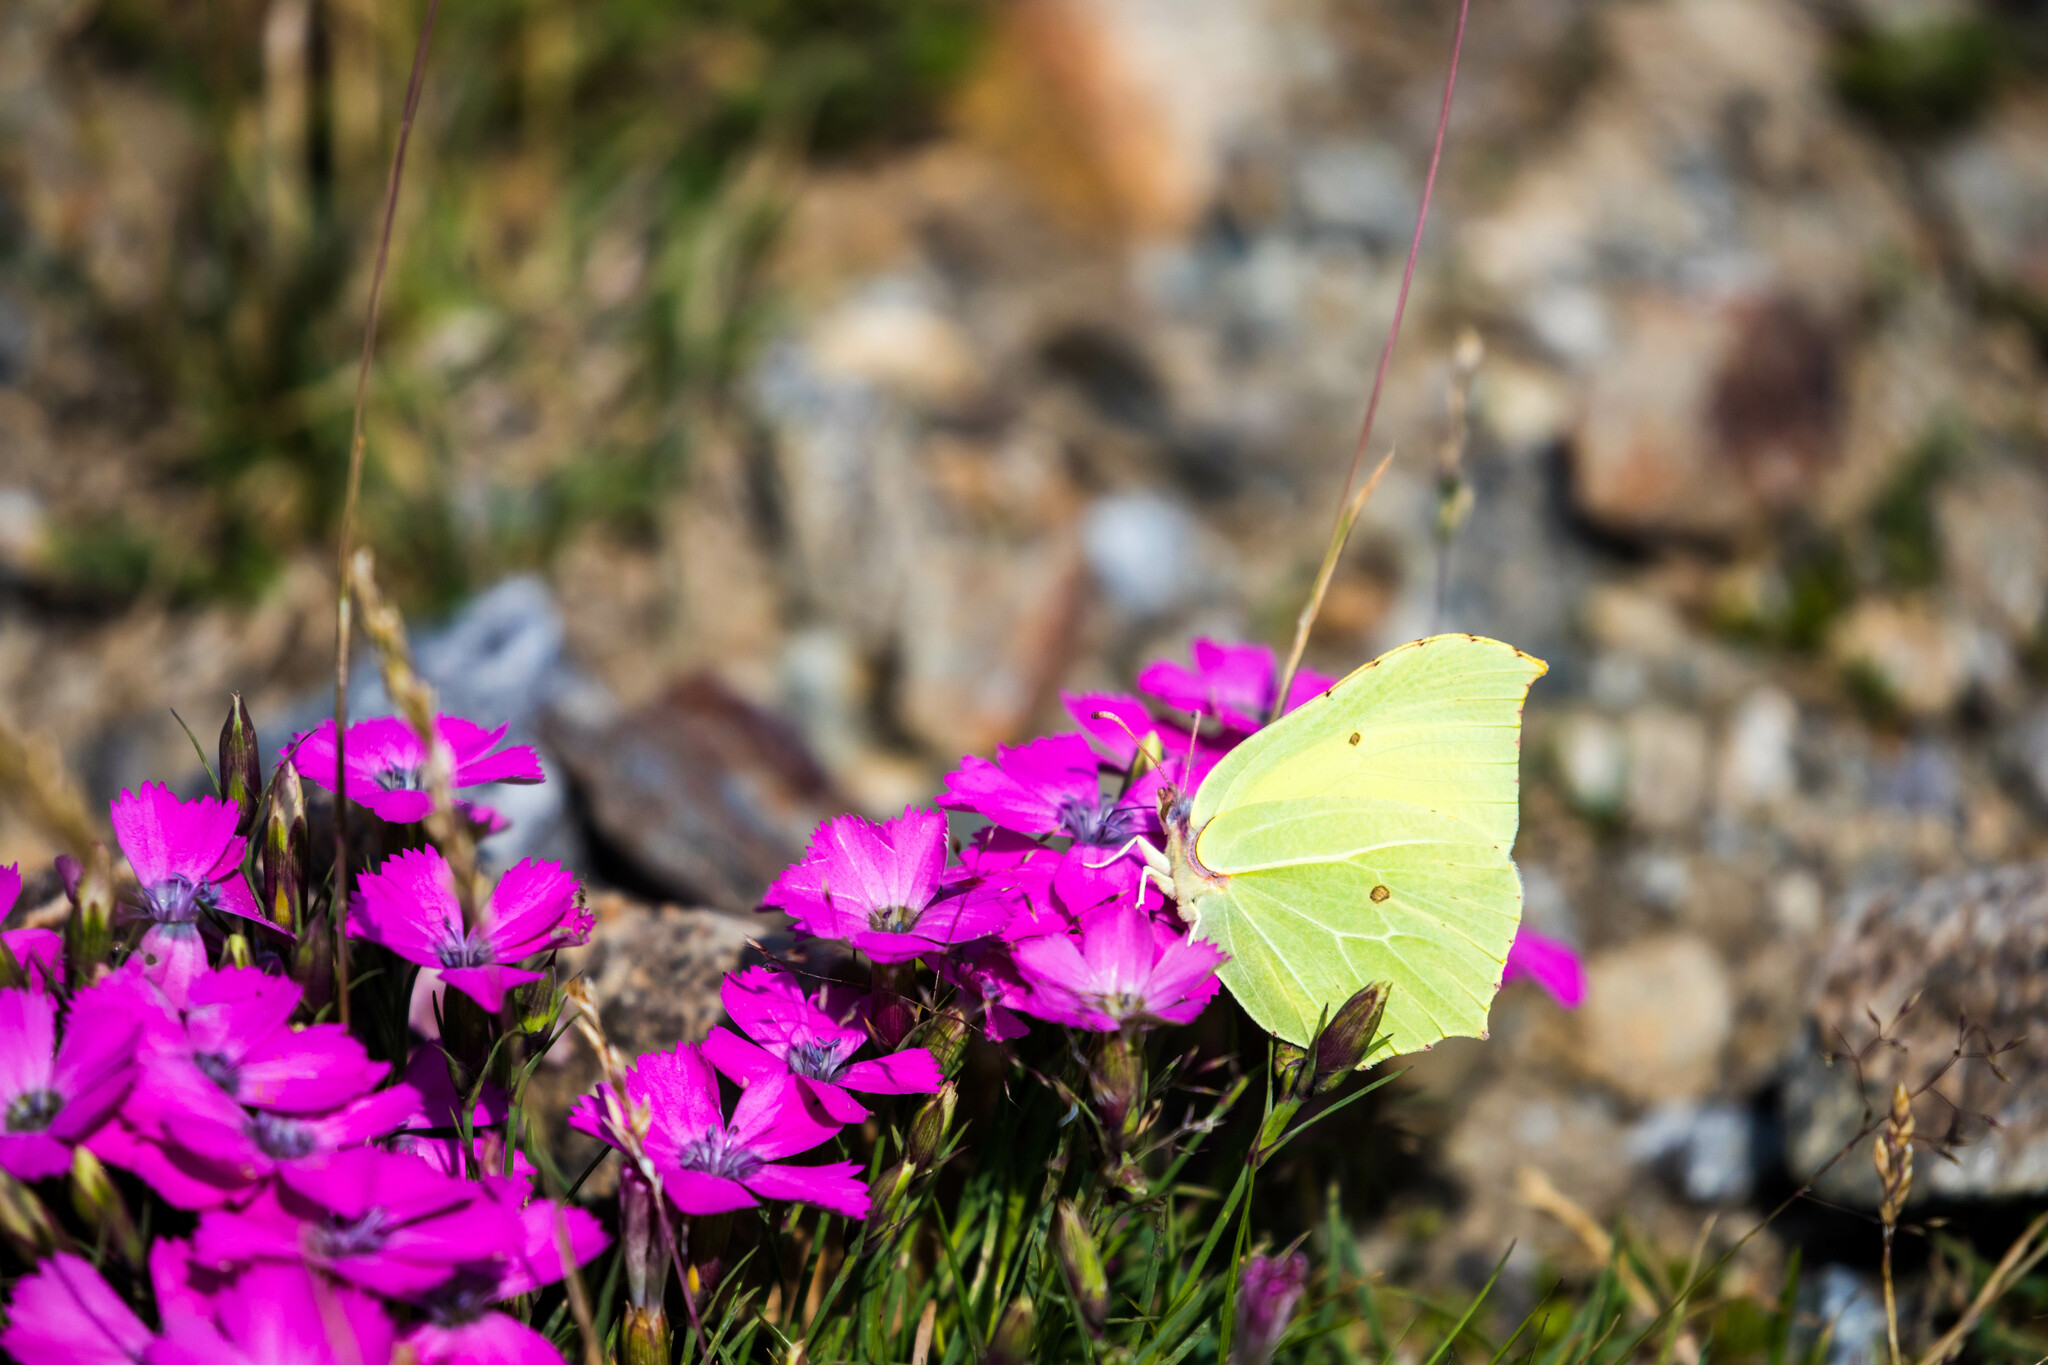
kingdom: Animalia
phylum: Arthropoda
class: Insecta
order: Lepidoptera
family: Pieridae
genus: Gonepteryx
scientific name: Gonepteryx rhamni
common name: Brimstone
